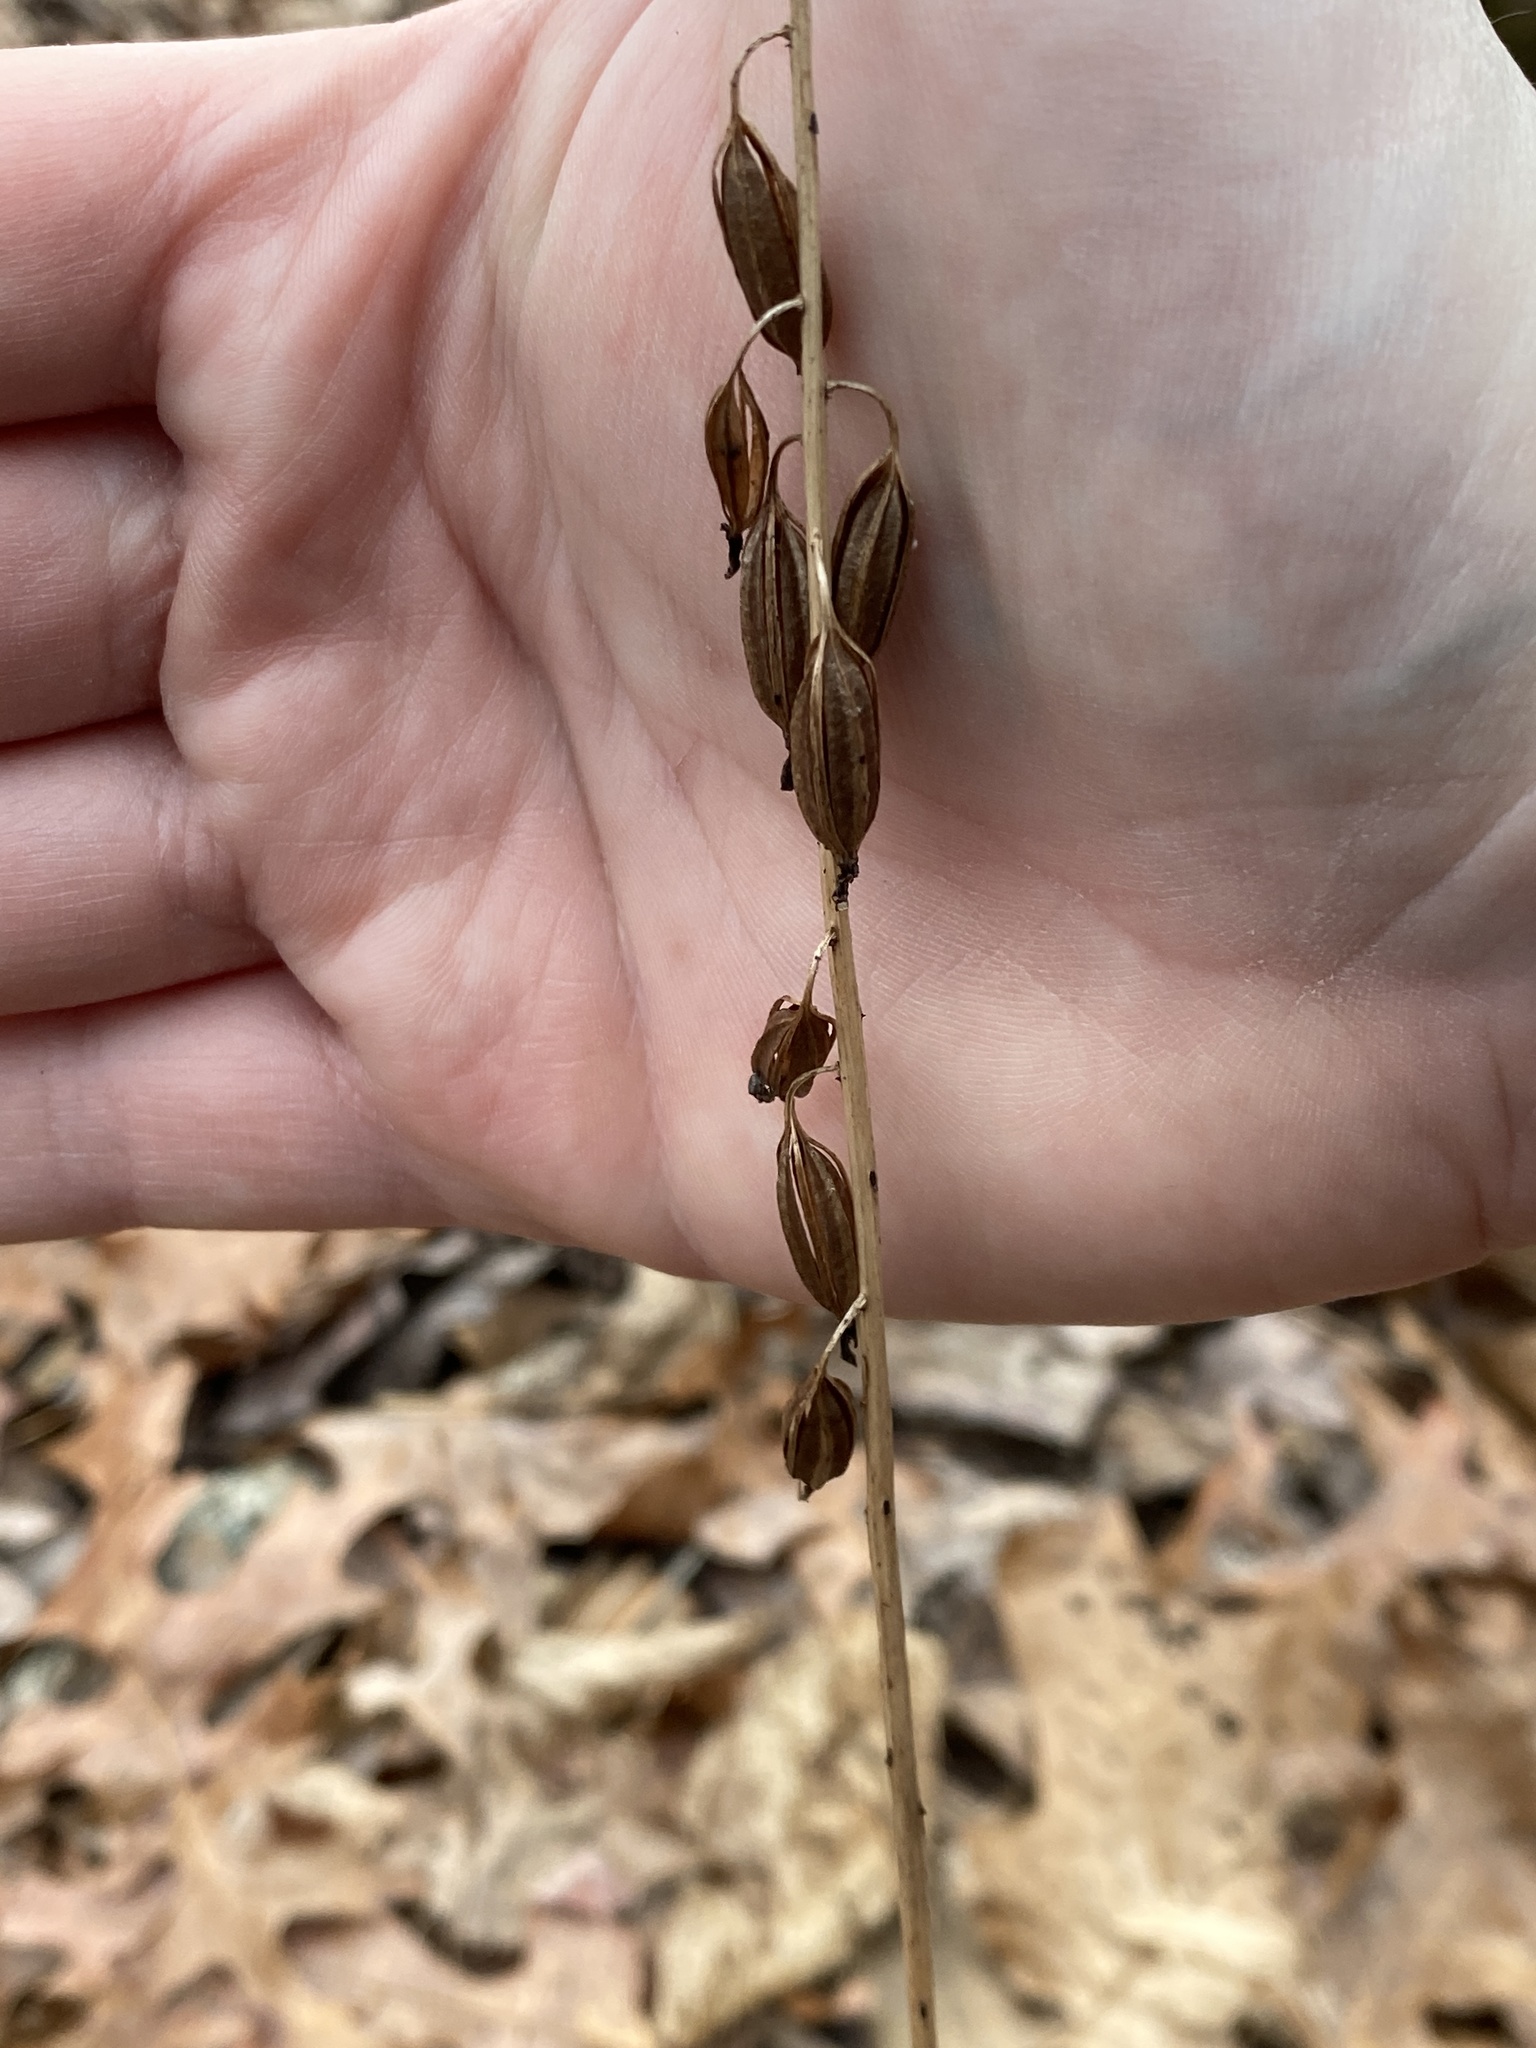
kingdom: Plantae
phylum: Tracheophyta
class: Liliopsida
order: Asparagales
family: Orchidaceae
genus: Tipularia
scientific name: Tipularia discolor
